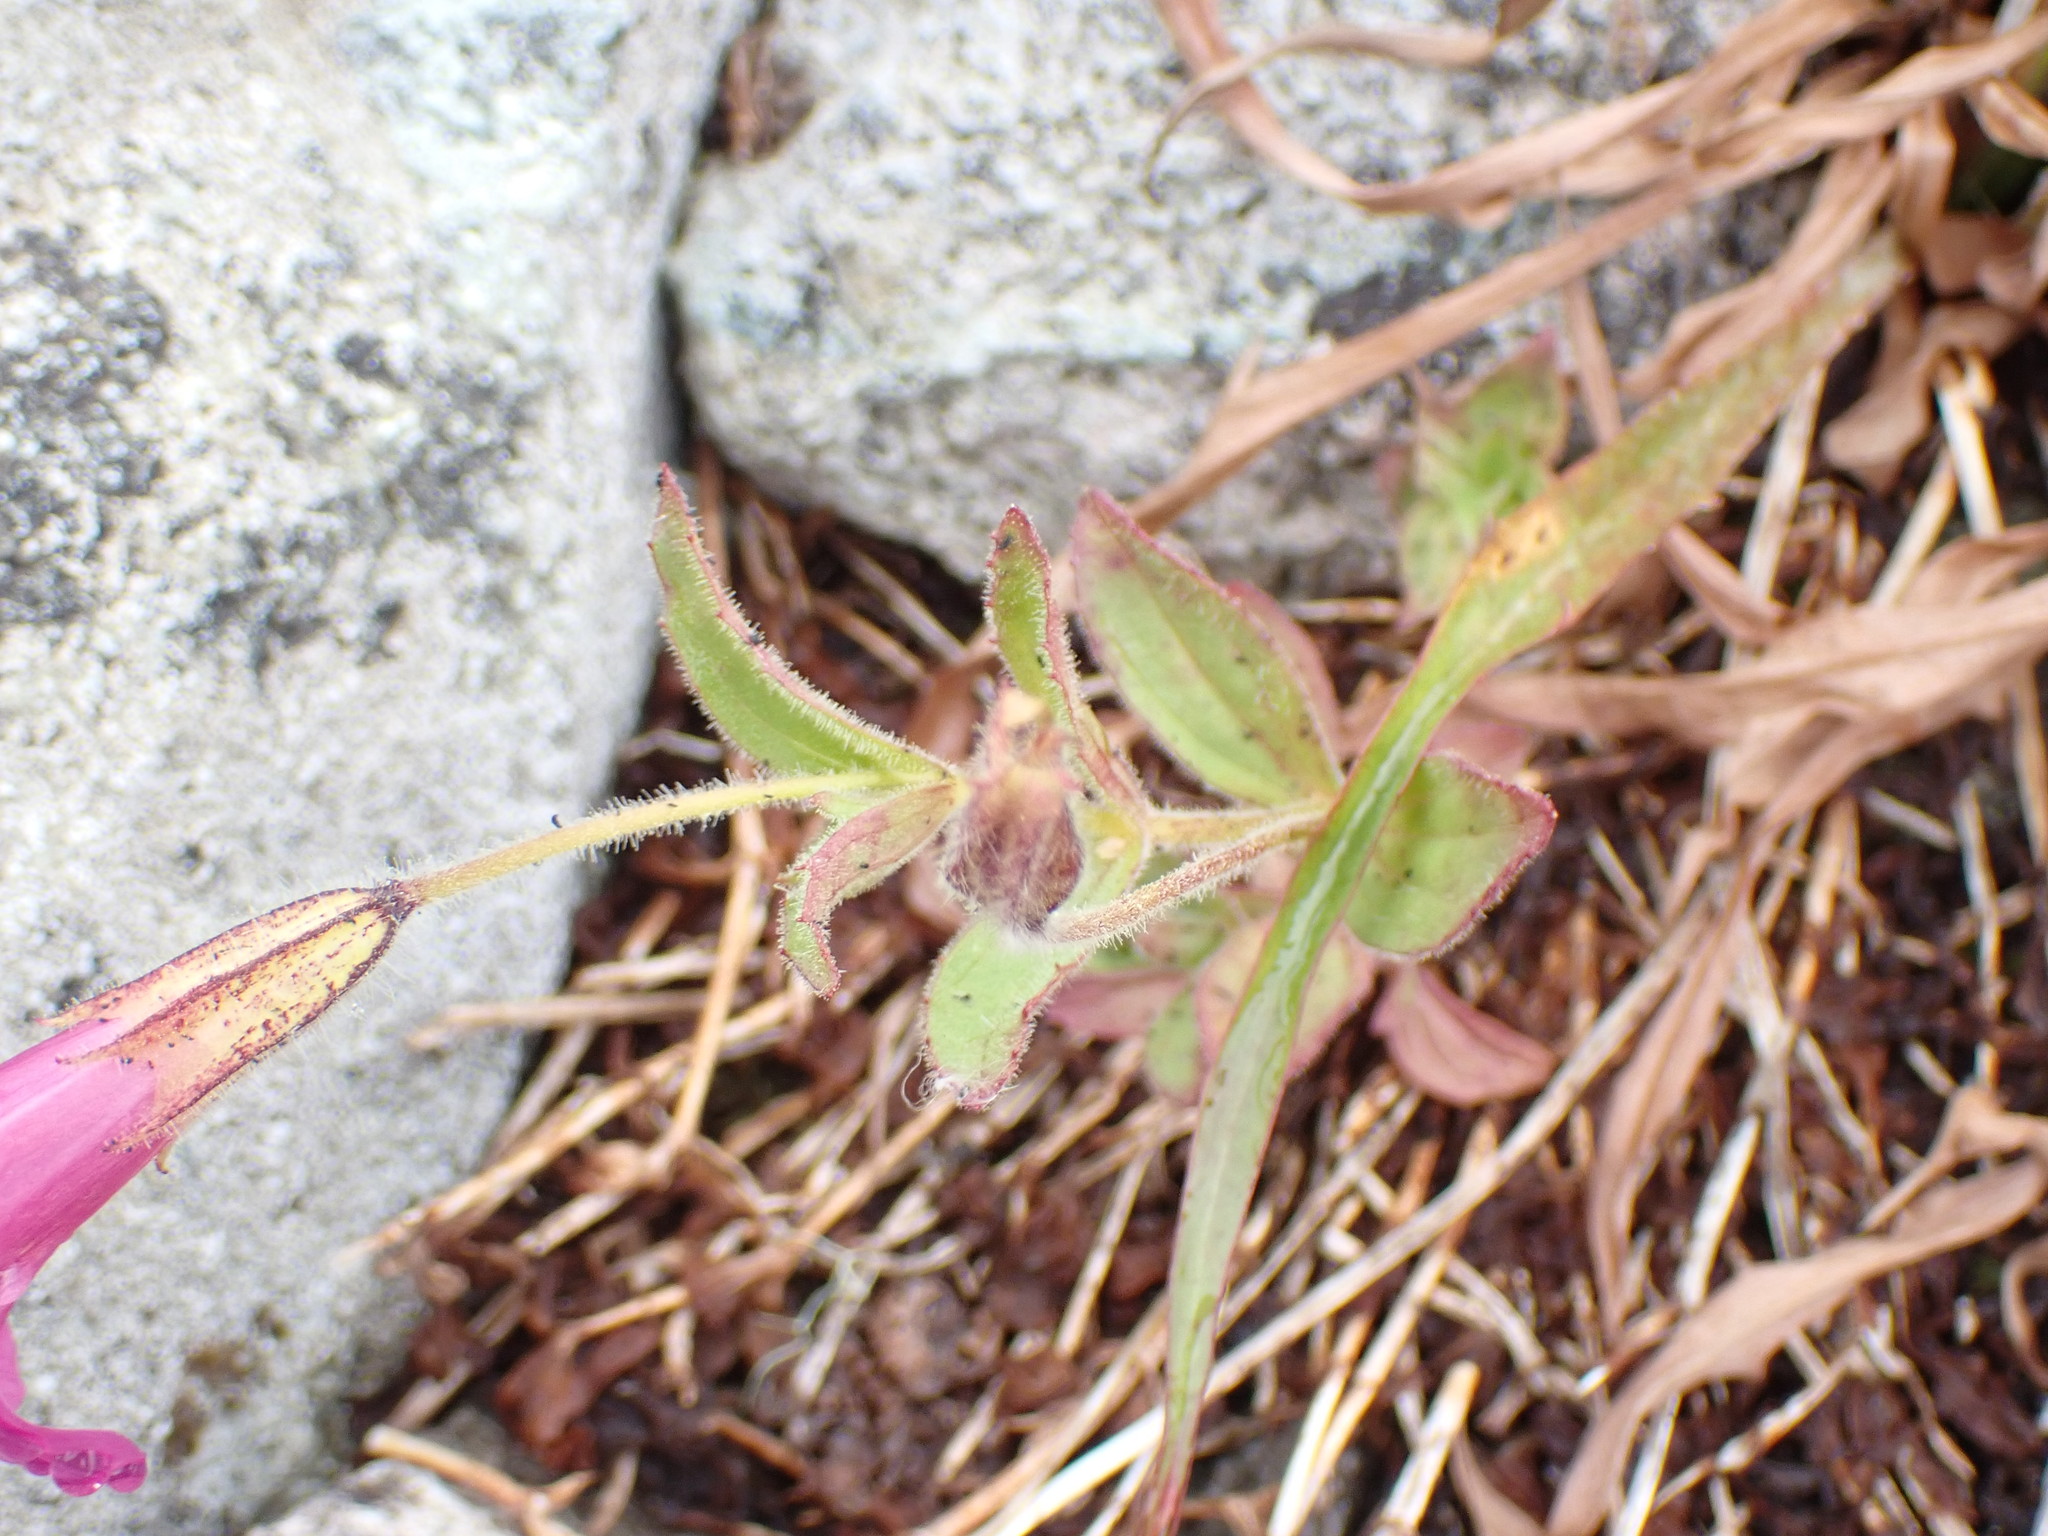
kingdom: Plantae
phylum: Tracheophyta
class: Magnoliopsida
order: Lamiales
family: Phrymaceae
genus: Erythranthe
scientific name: Erythranthe lewisii
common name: Lewis's monkey-flower
